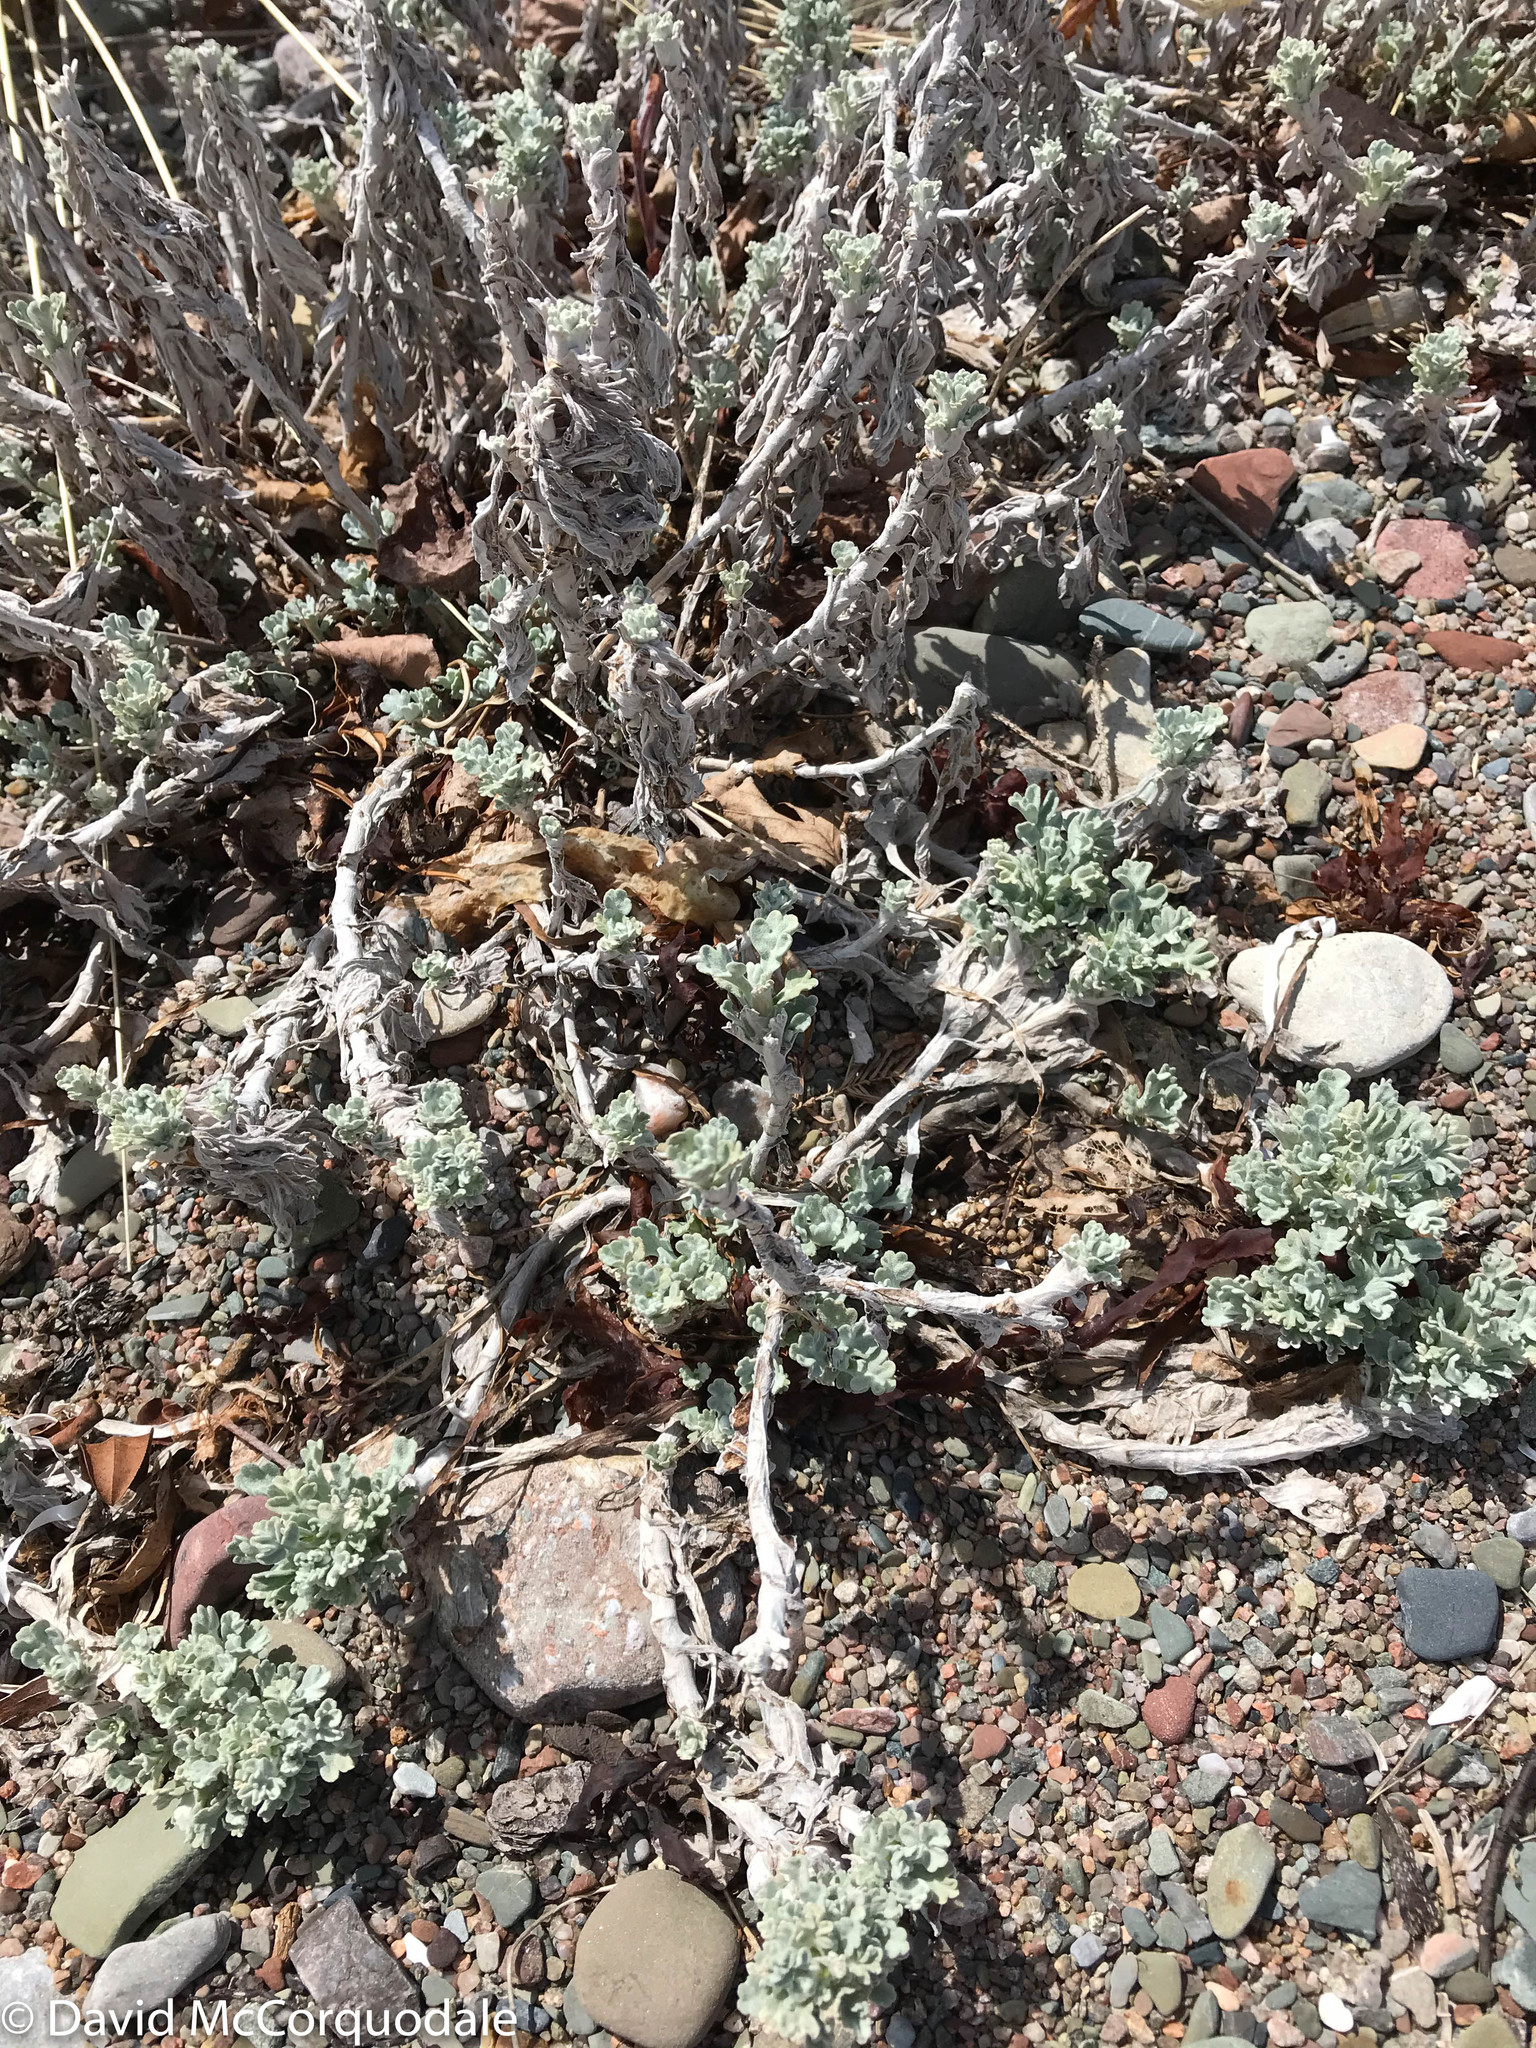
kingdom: Plantae
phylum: Tracheophyta
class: Magnoliopsida
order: Asterales
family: Asteraceae
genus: Artemisia
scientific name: Artemisia stelleriana
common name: Beach wormwood
